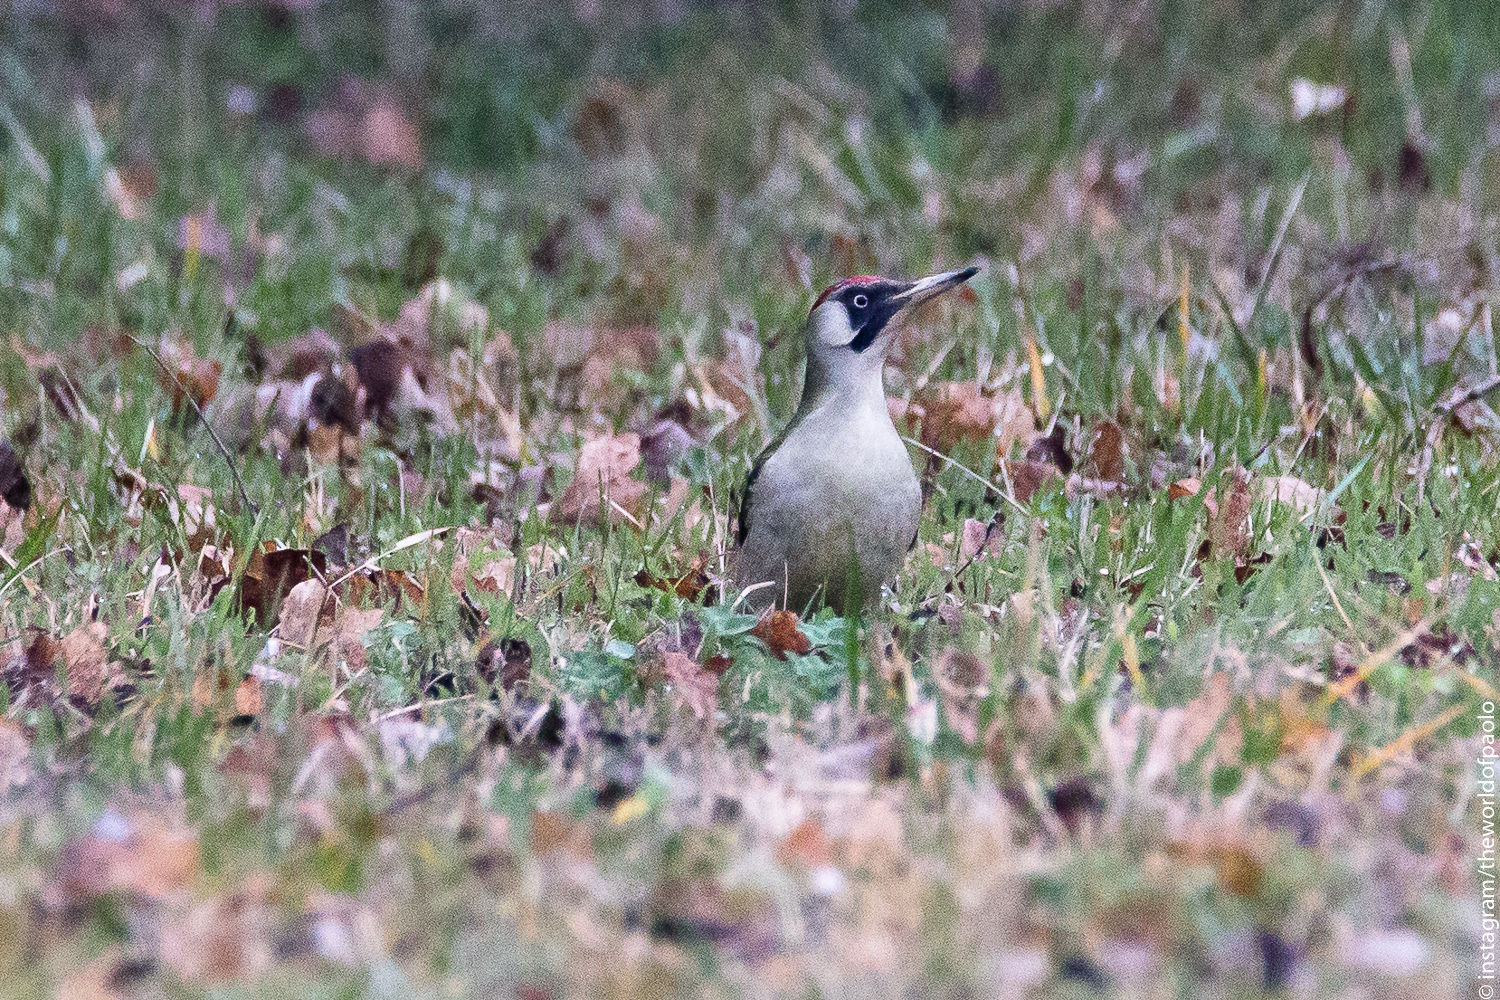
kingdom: Animalia
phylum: Chordata
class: Aves
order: Piciformes
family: Picidae
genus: Picus
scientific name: Picus viridis
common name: European green woodpecker
